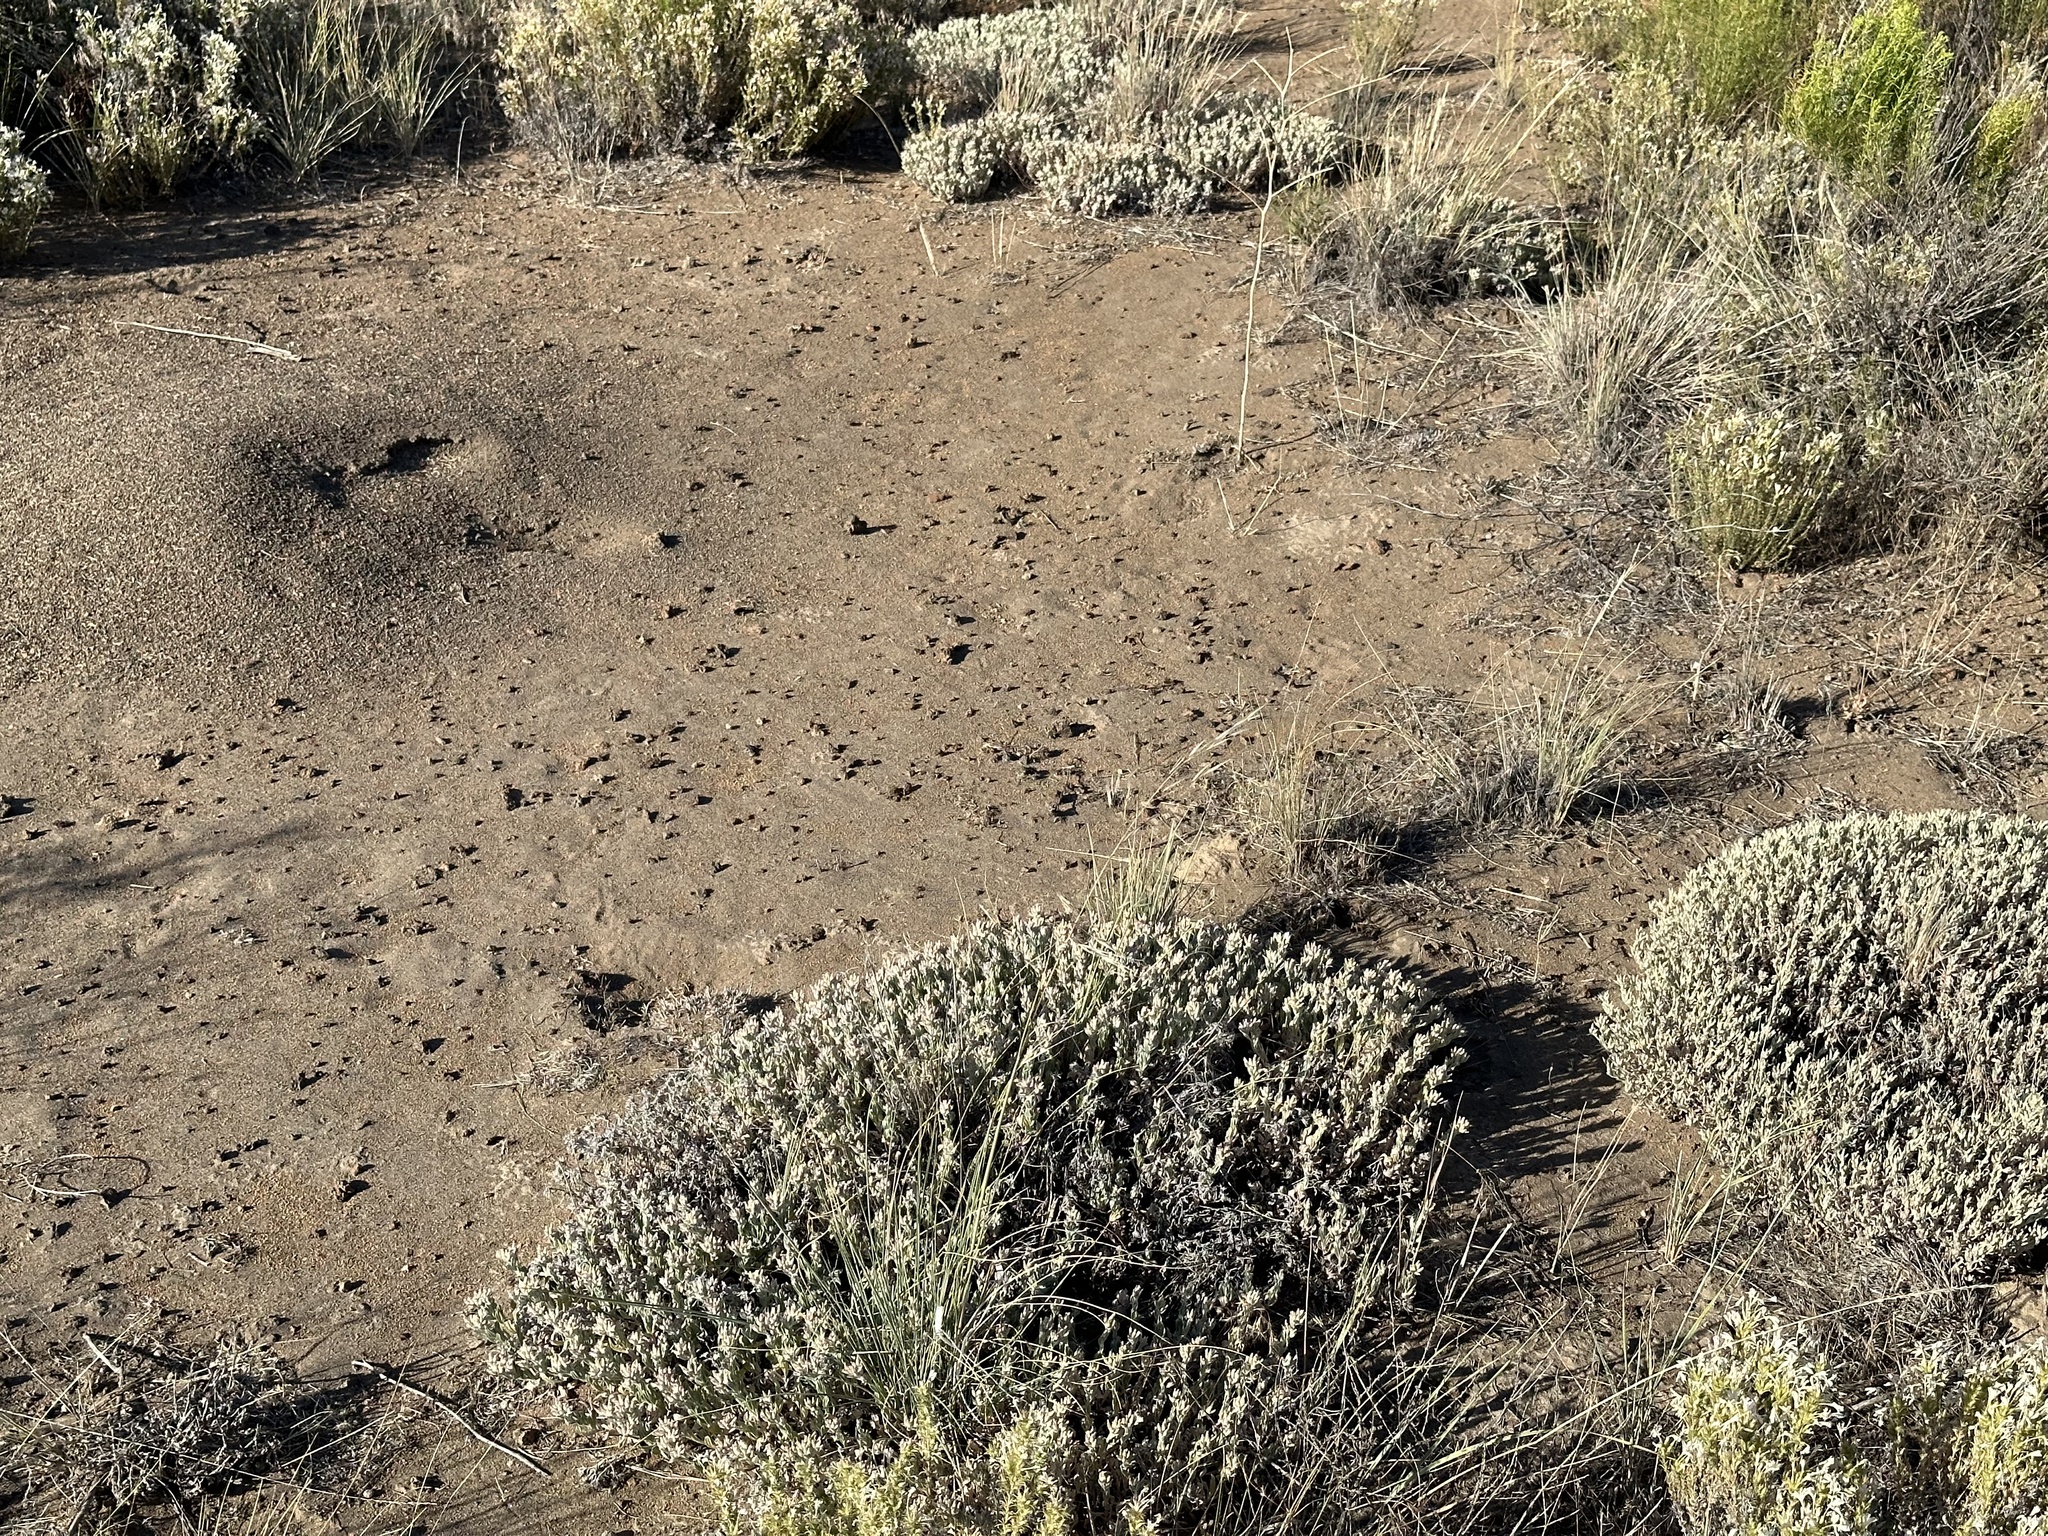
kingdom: Plantae
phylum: Tracheophyta
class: Magnoliopsida
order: Asterales
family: Asteraceae
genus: Antennaria
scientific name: Antennaria geyeri
